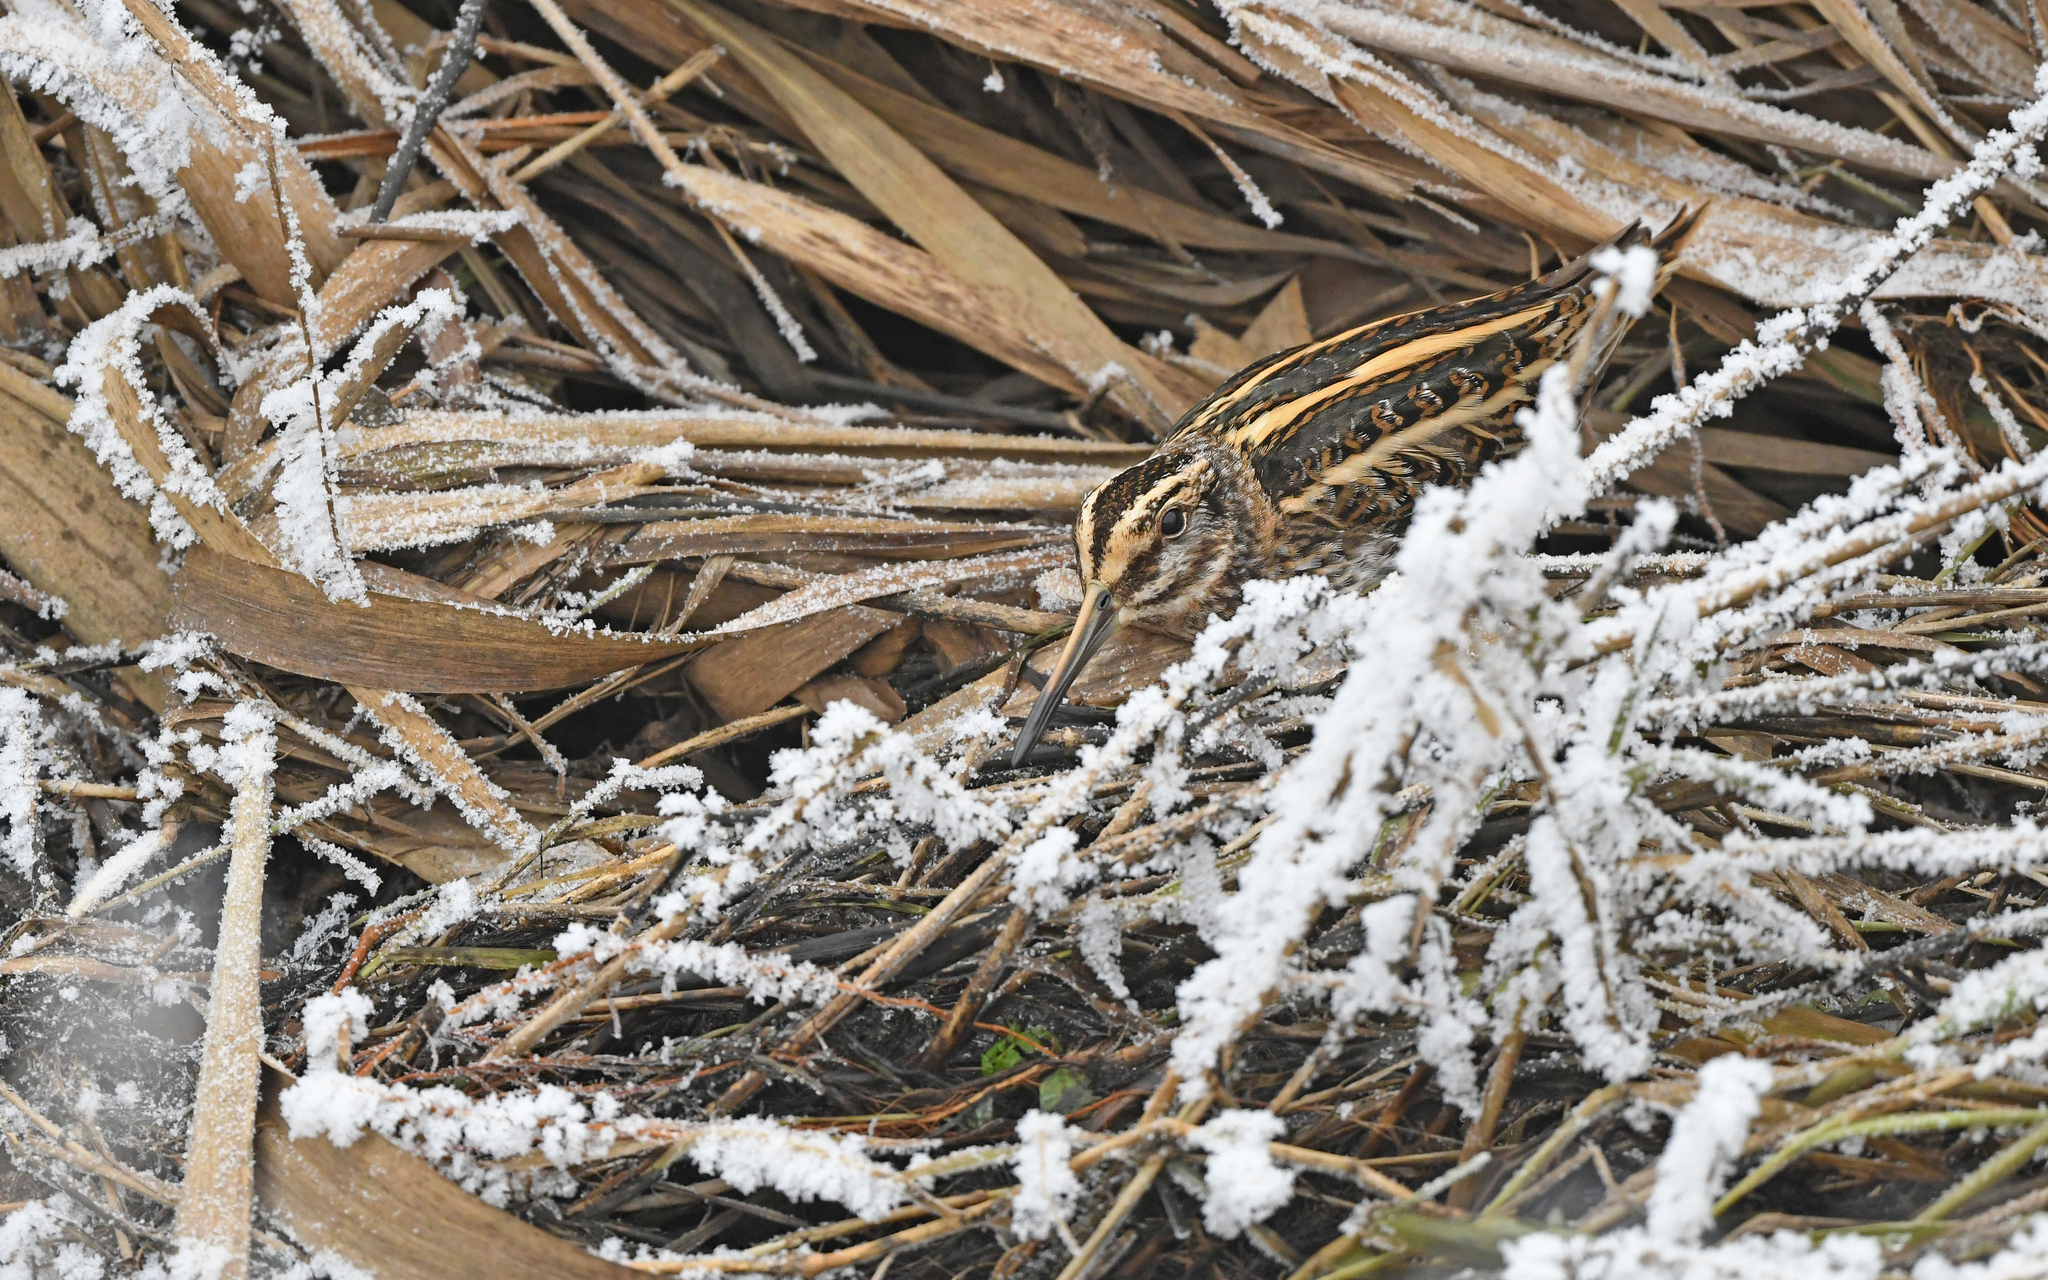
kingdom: Animalia
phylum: Chordata
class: Aves
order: Charadriiformes
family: Scolopacidae
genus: Lymnocryptes
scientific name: Lymnocryptes minimus
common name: Jack snipe
